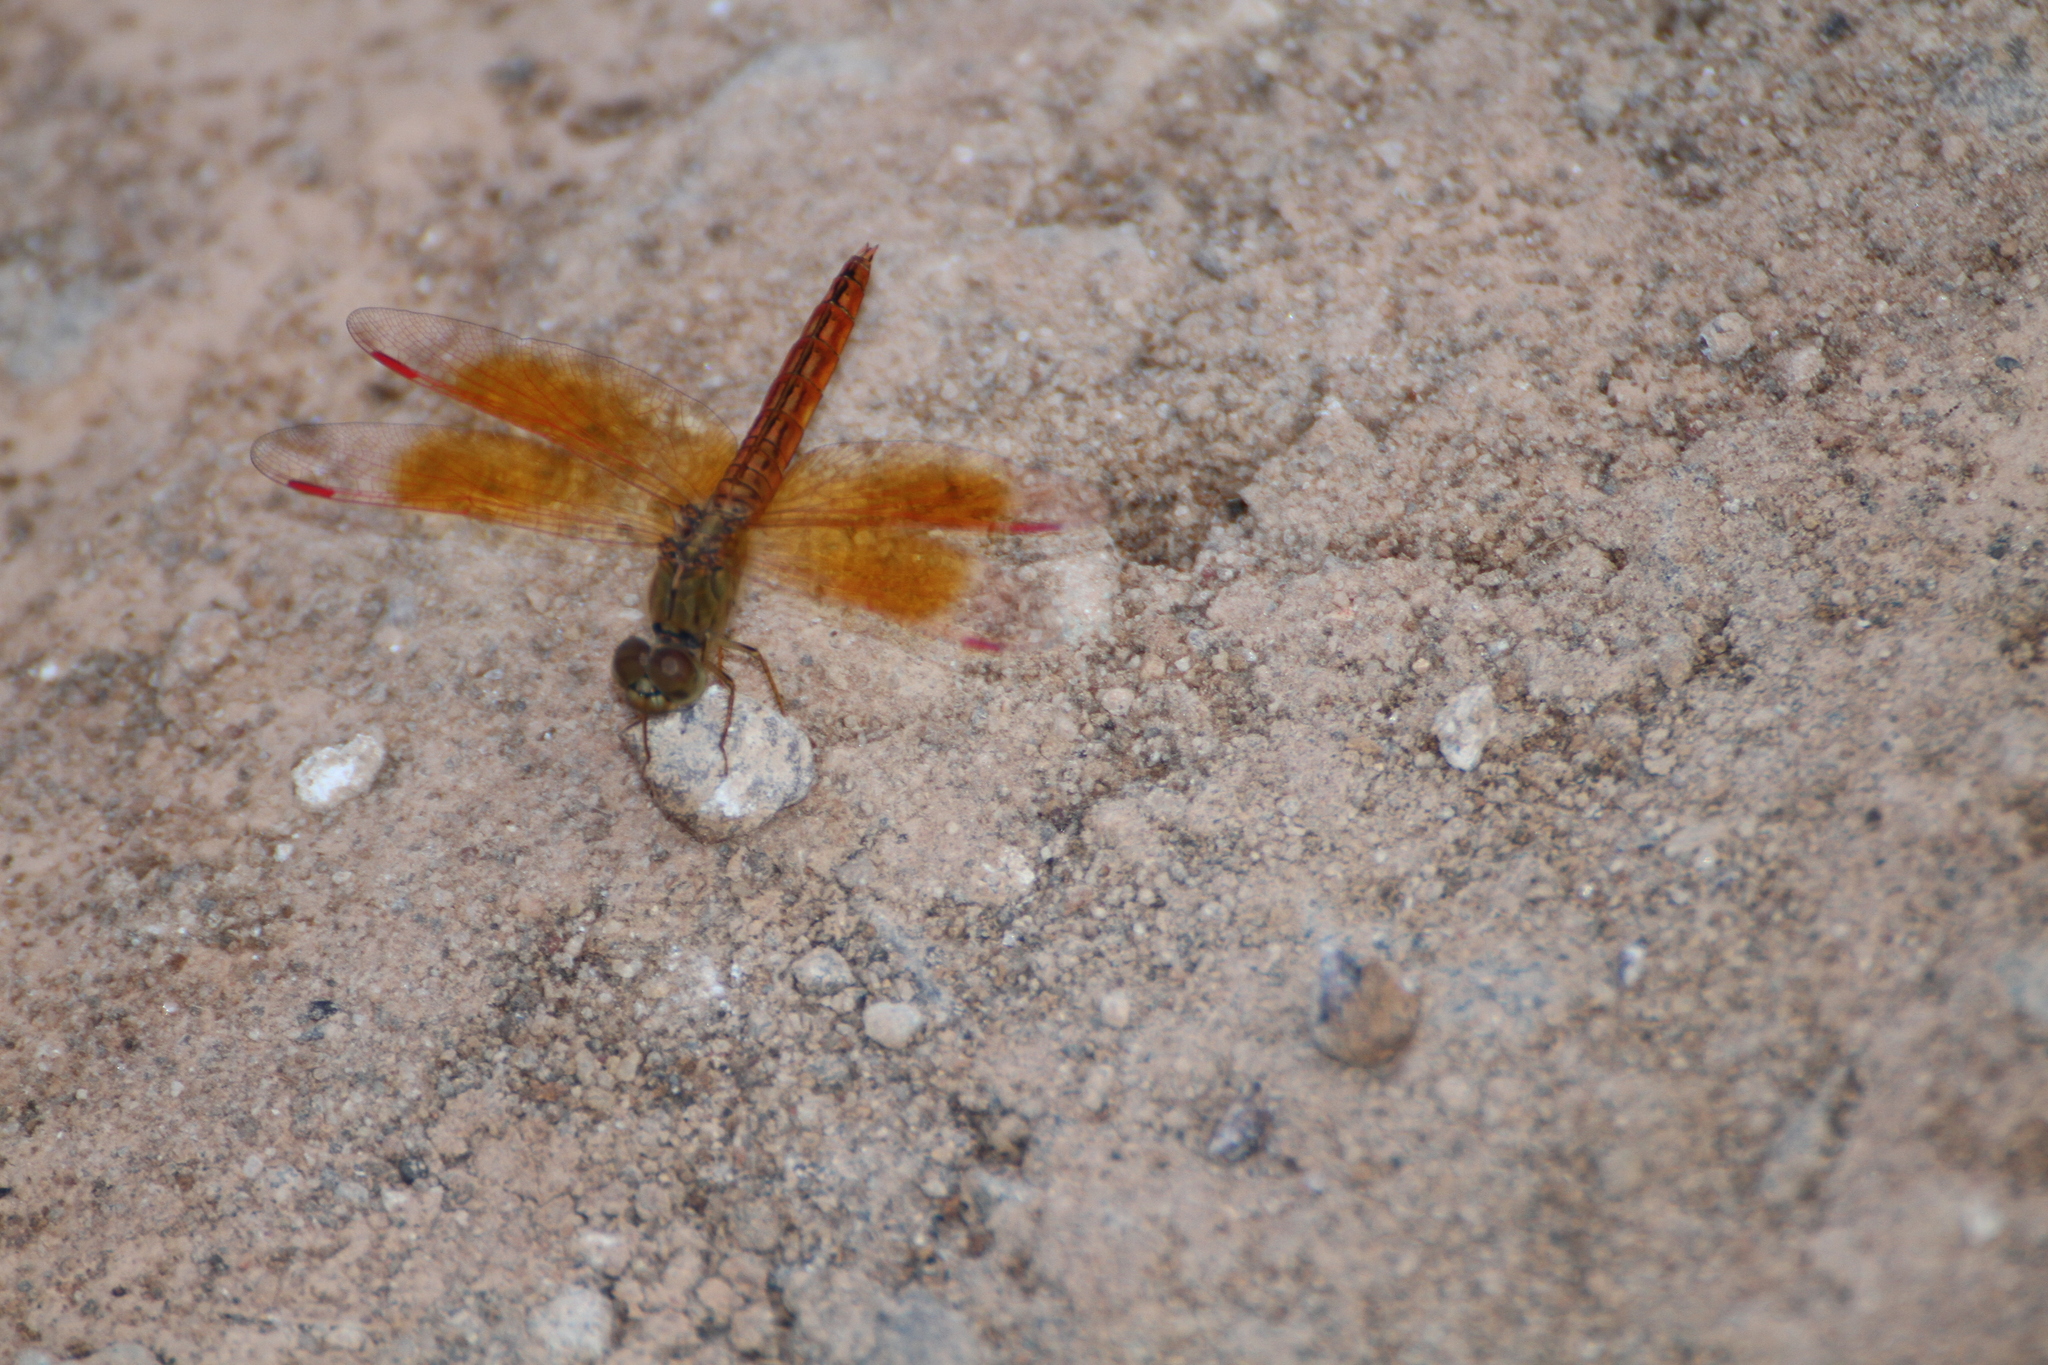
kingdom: Animalia
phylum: Arthropoda
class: Insecta
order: Odonata
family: Libellulidae
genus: Brachythemis
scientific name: Brachythemis contaminata
